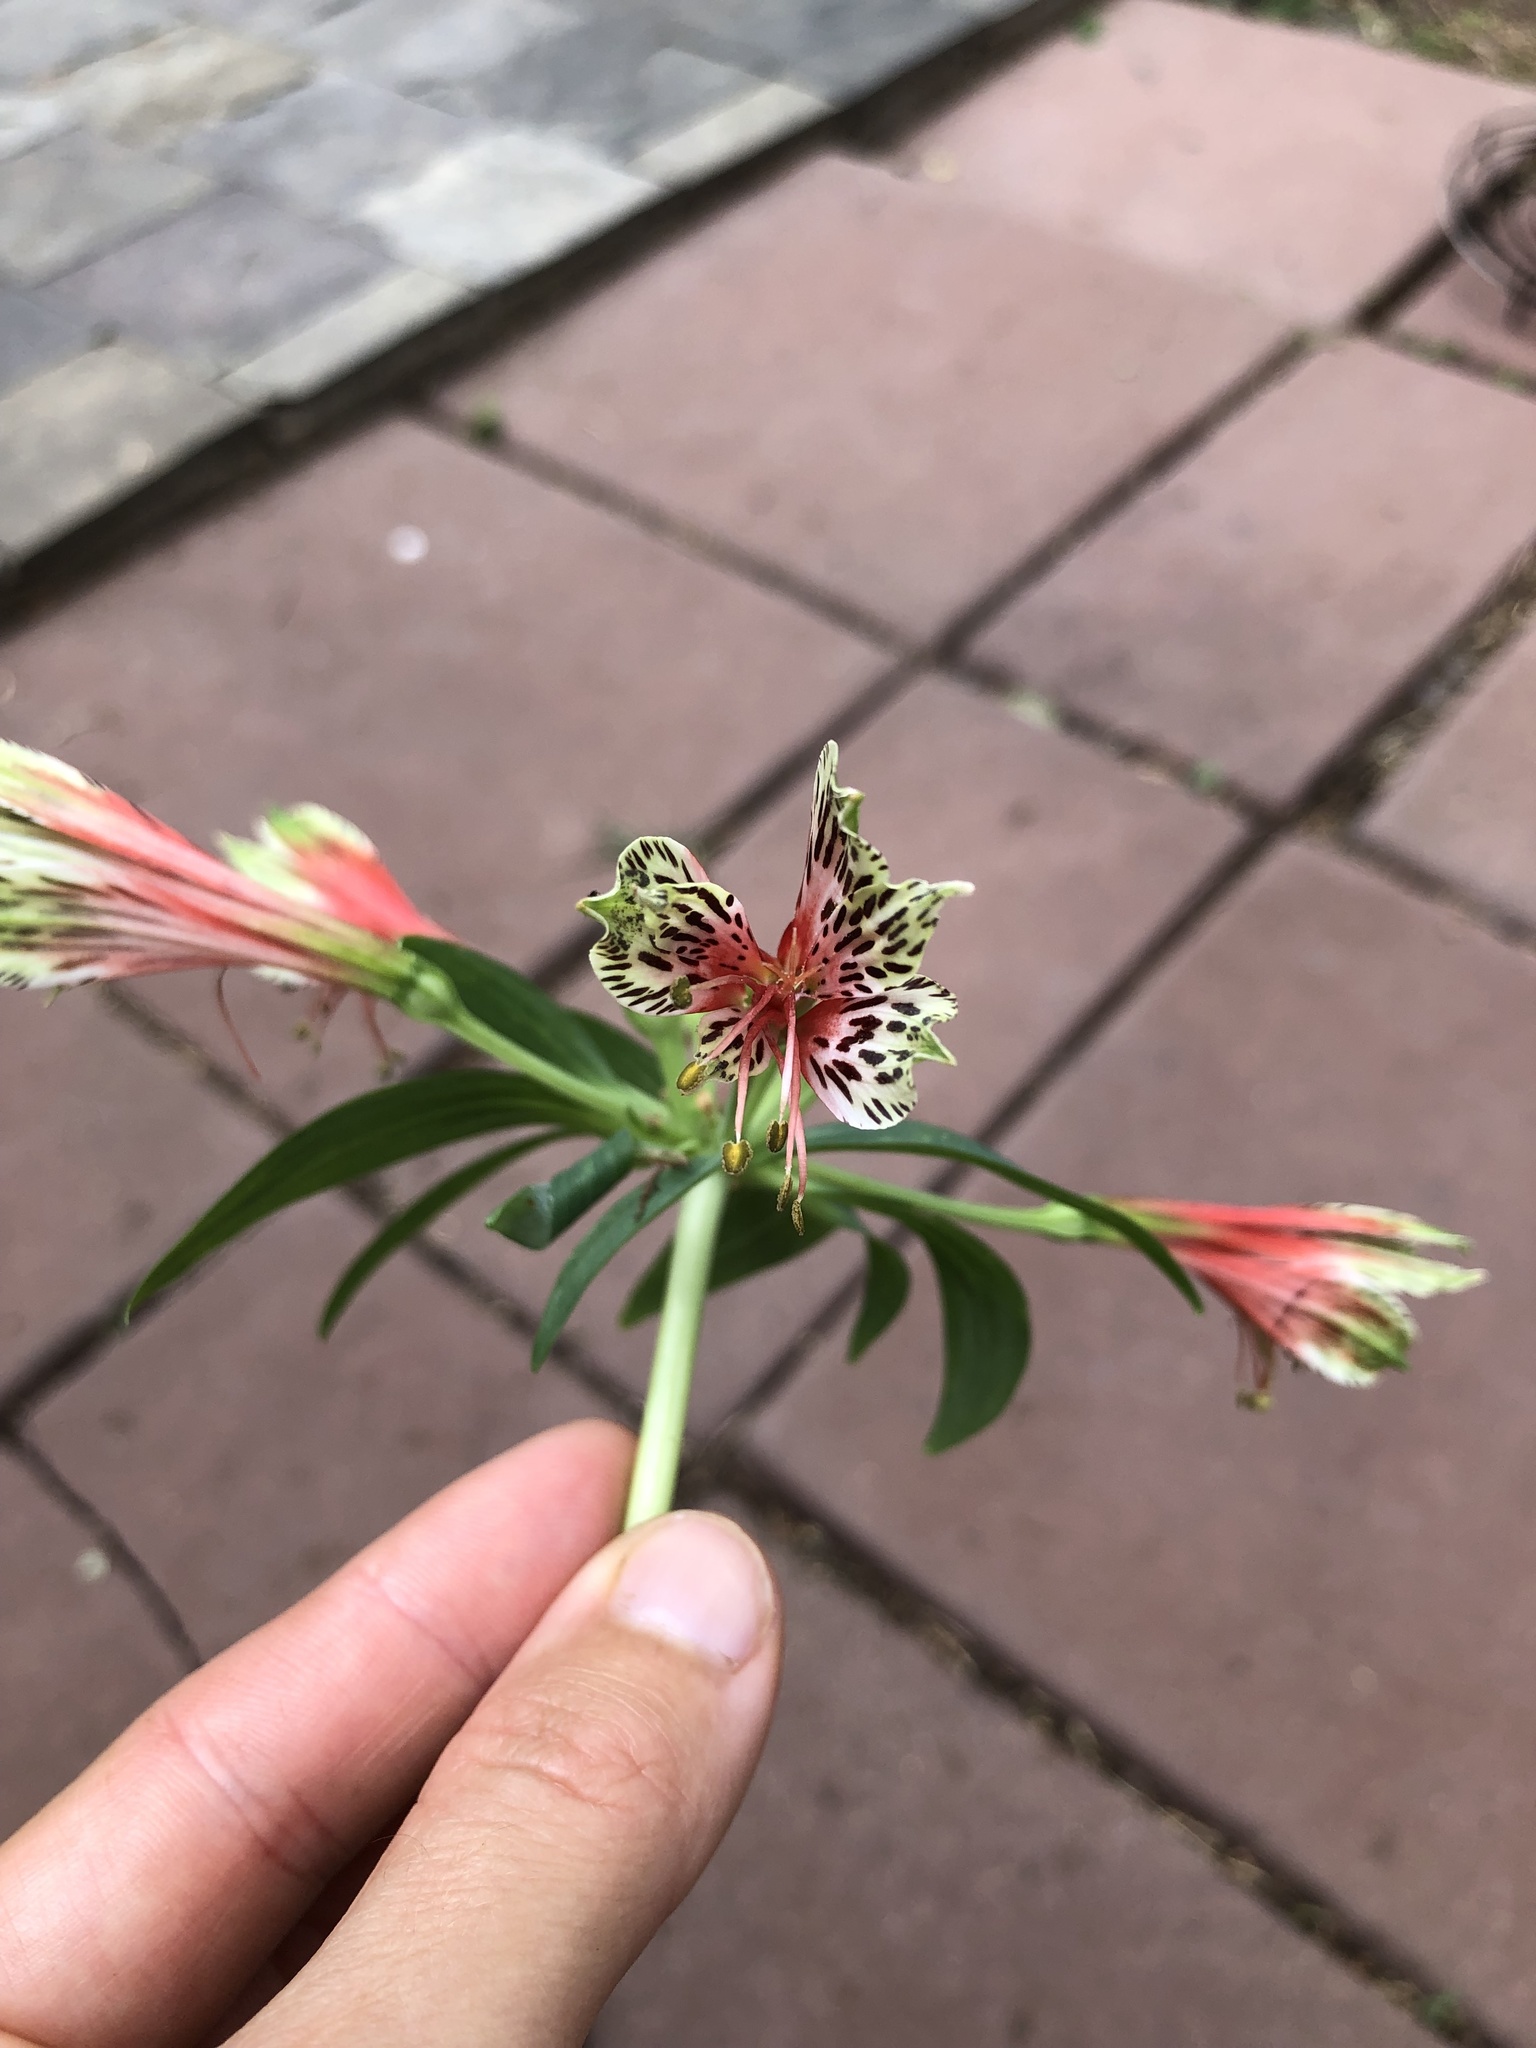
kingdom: Plantae
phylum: Tracheophyta
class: Liliopsida
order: Liliales
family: Alstroemeriaceae
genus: Alstroemeria
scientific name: Alstroemeria psittacina
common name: Peruvian-lily
